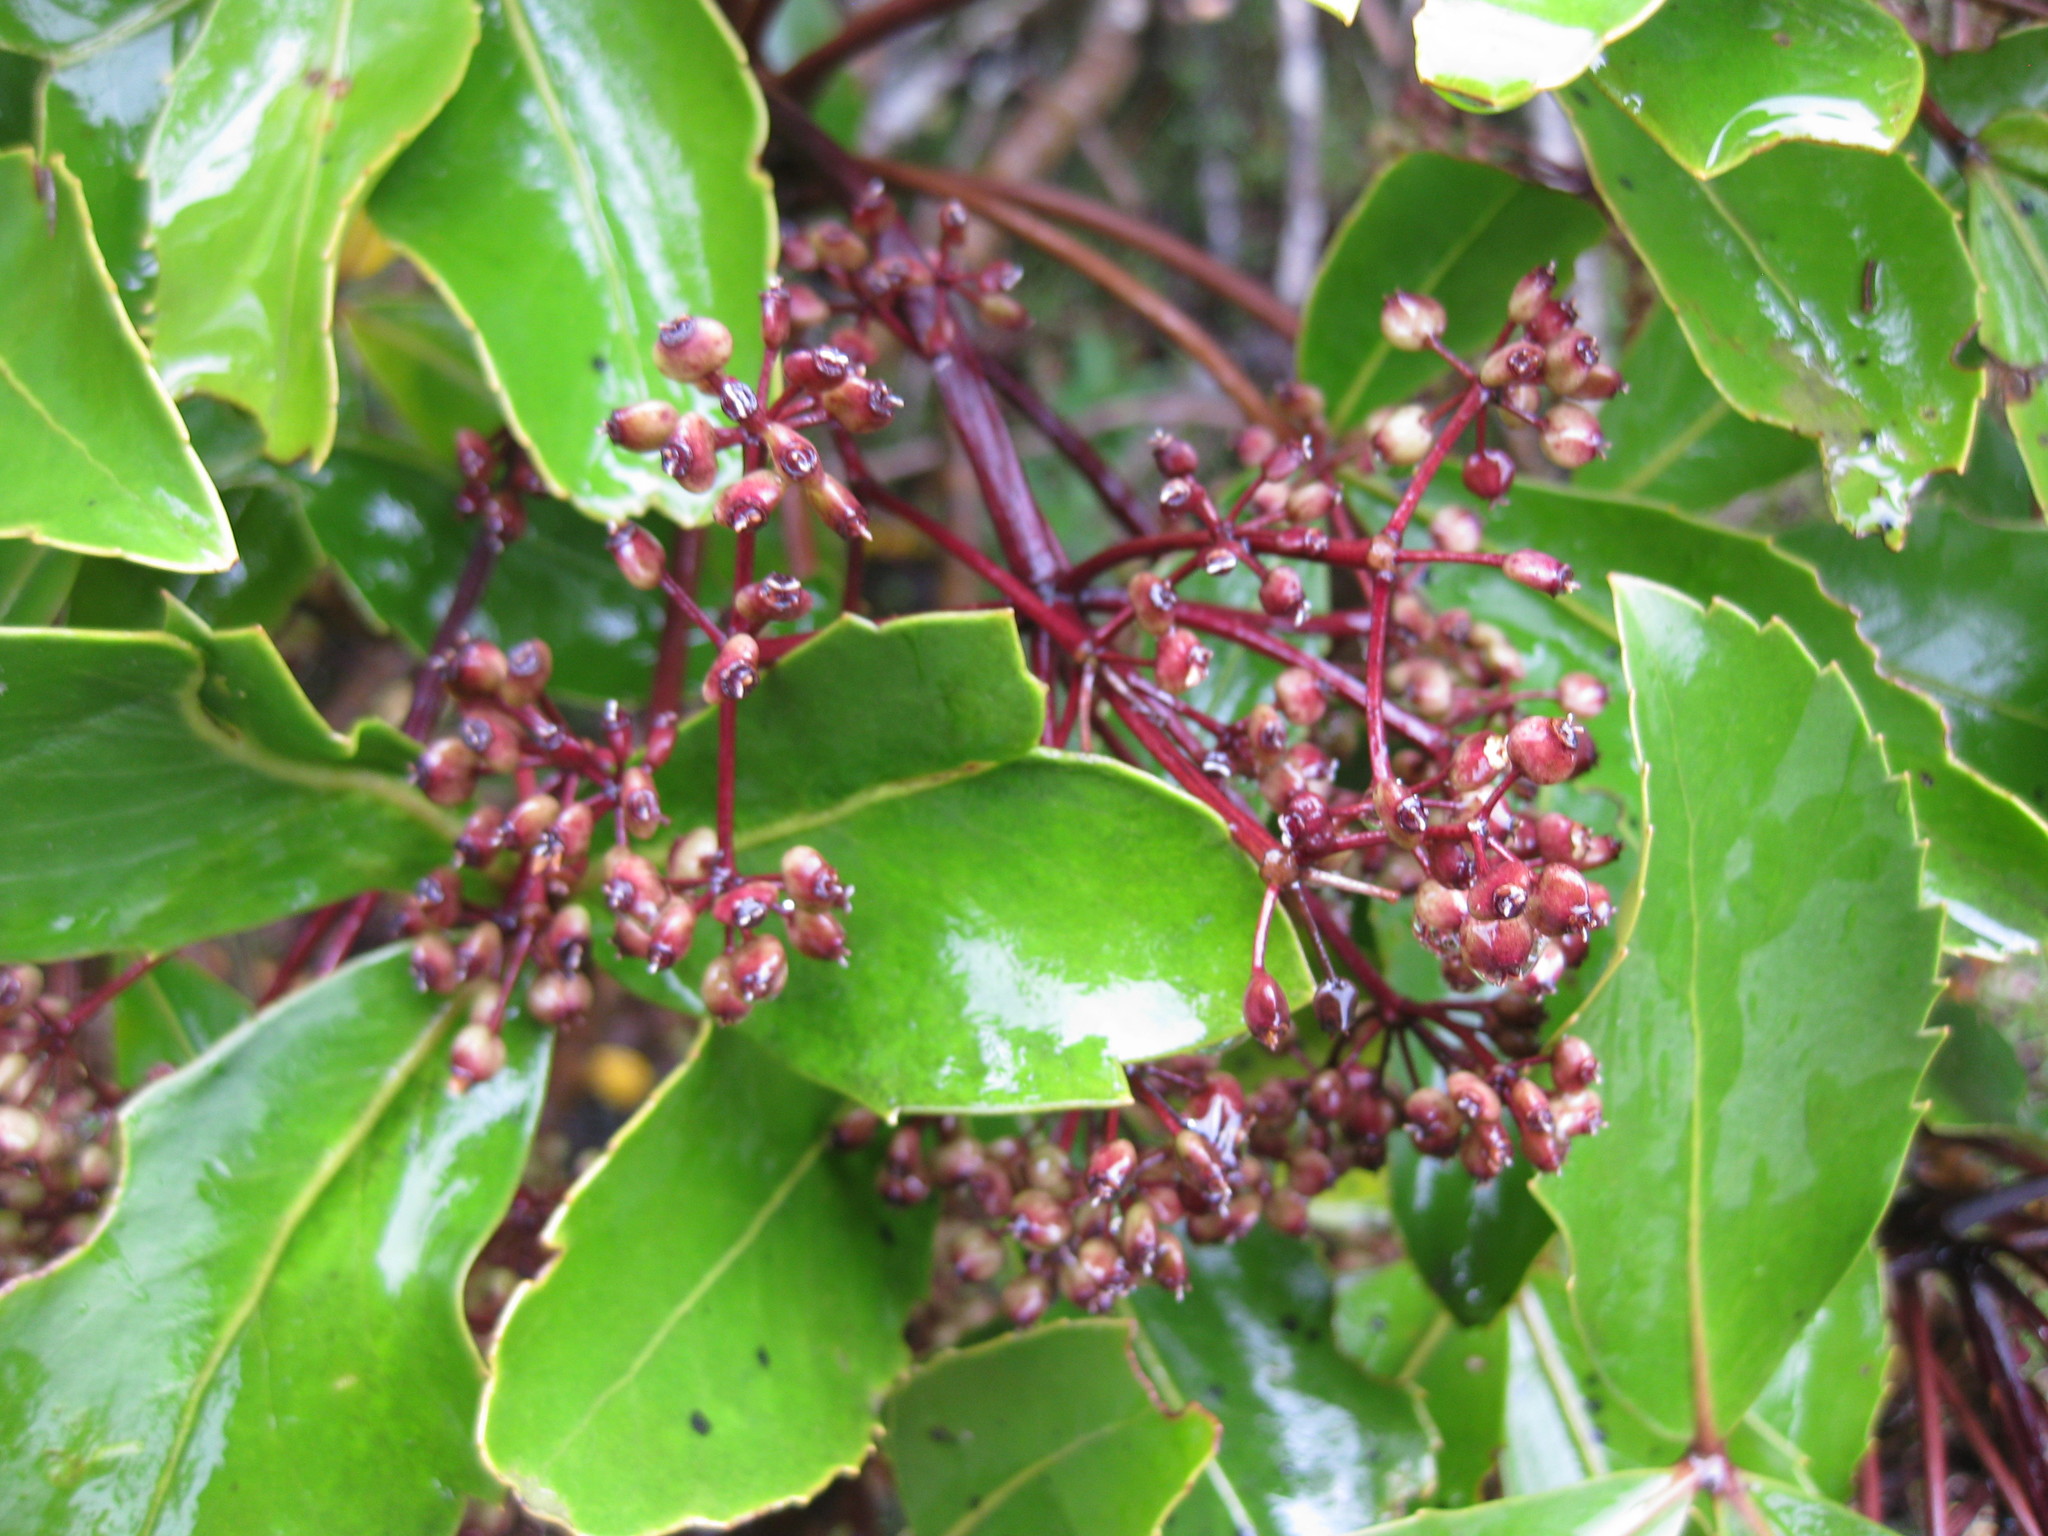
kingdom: Plantae
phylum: Tracheophyta
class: Magnoliopsida
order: Apiales
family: Araliaceae
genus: Neopanax
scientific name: Neopanax colensoi
